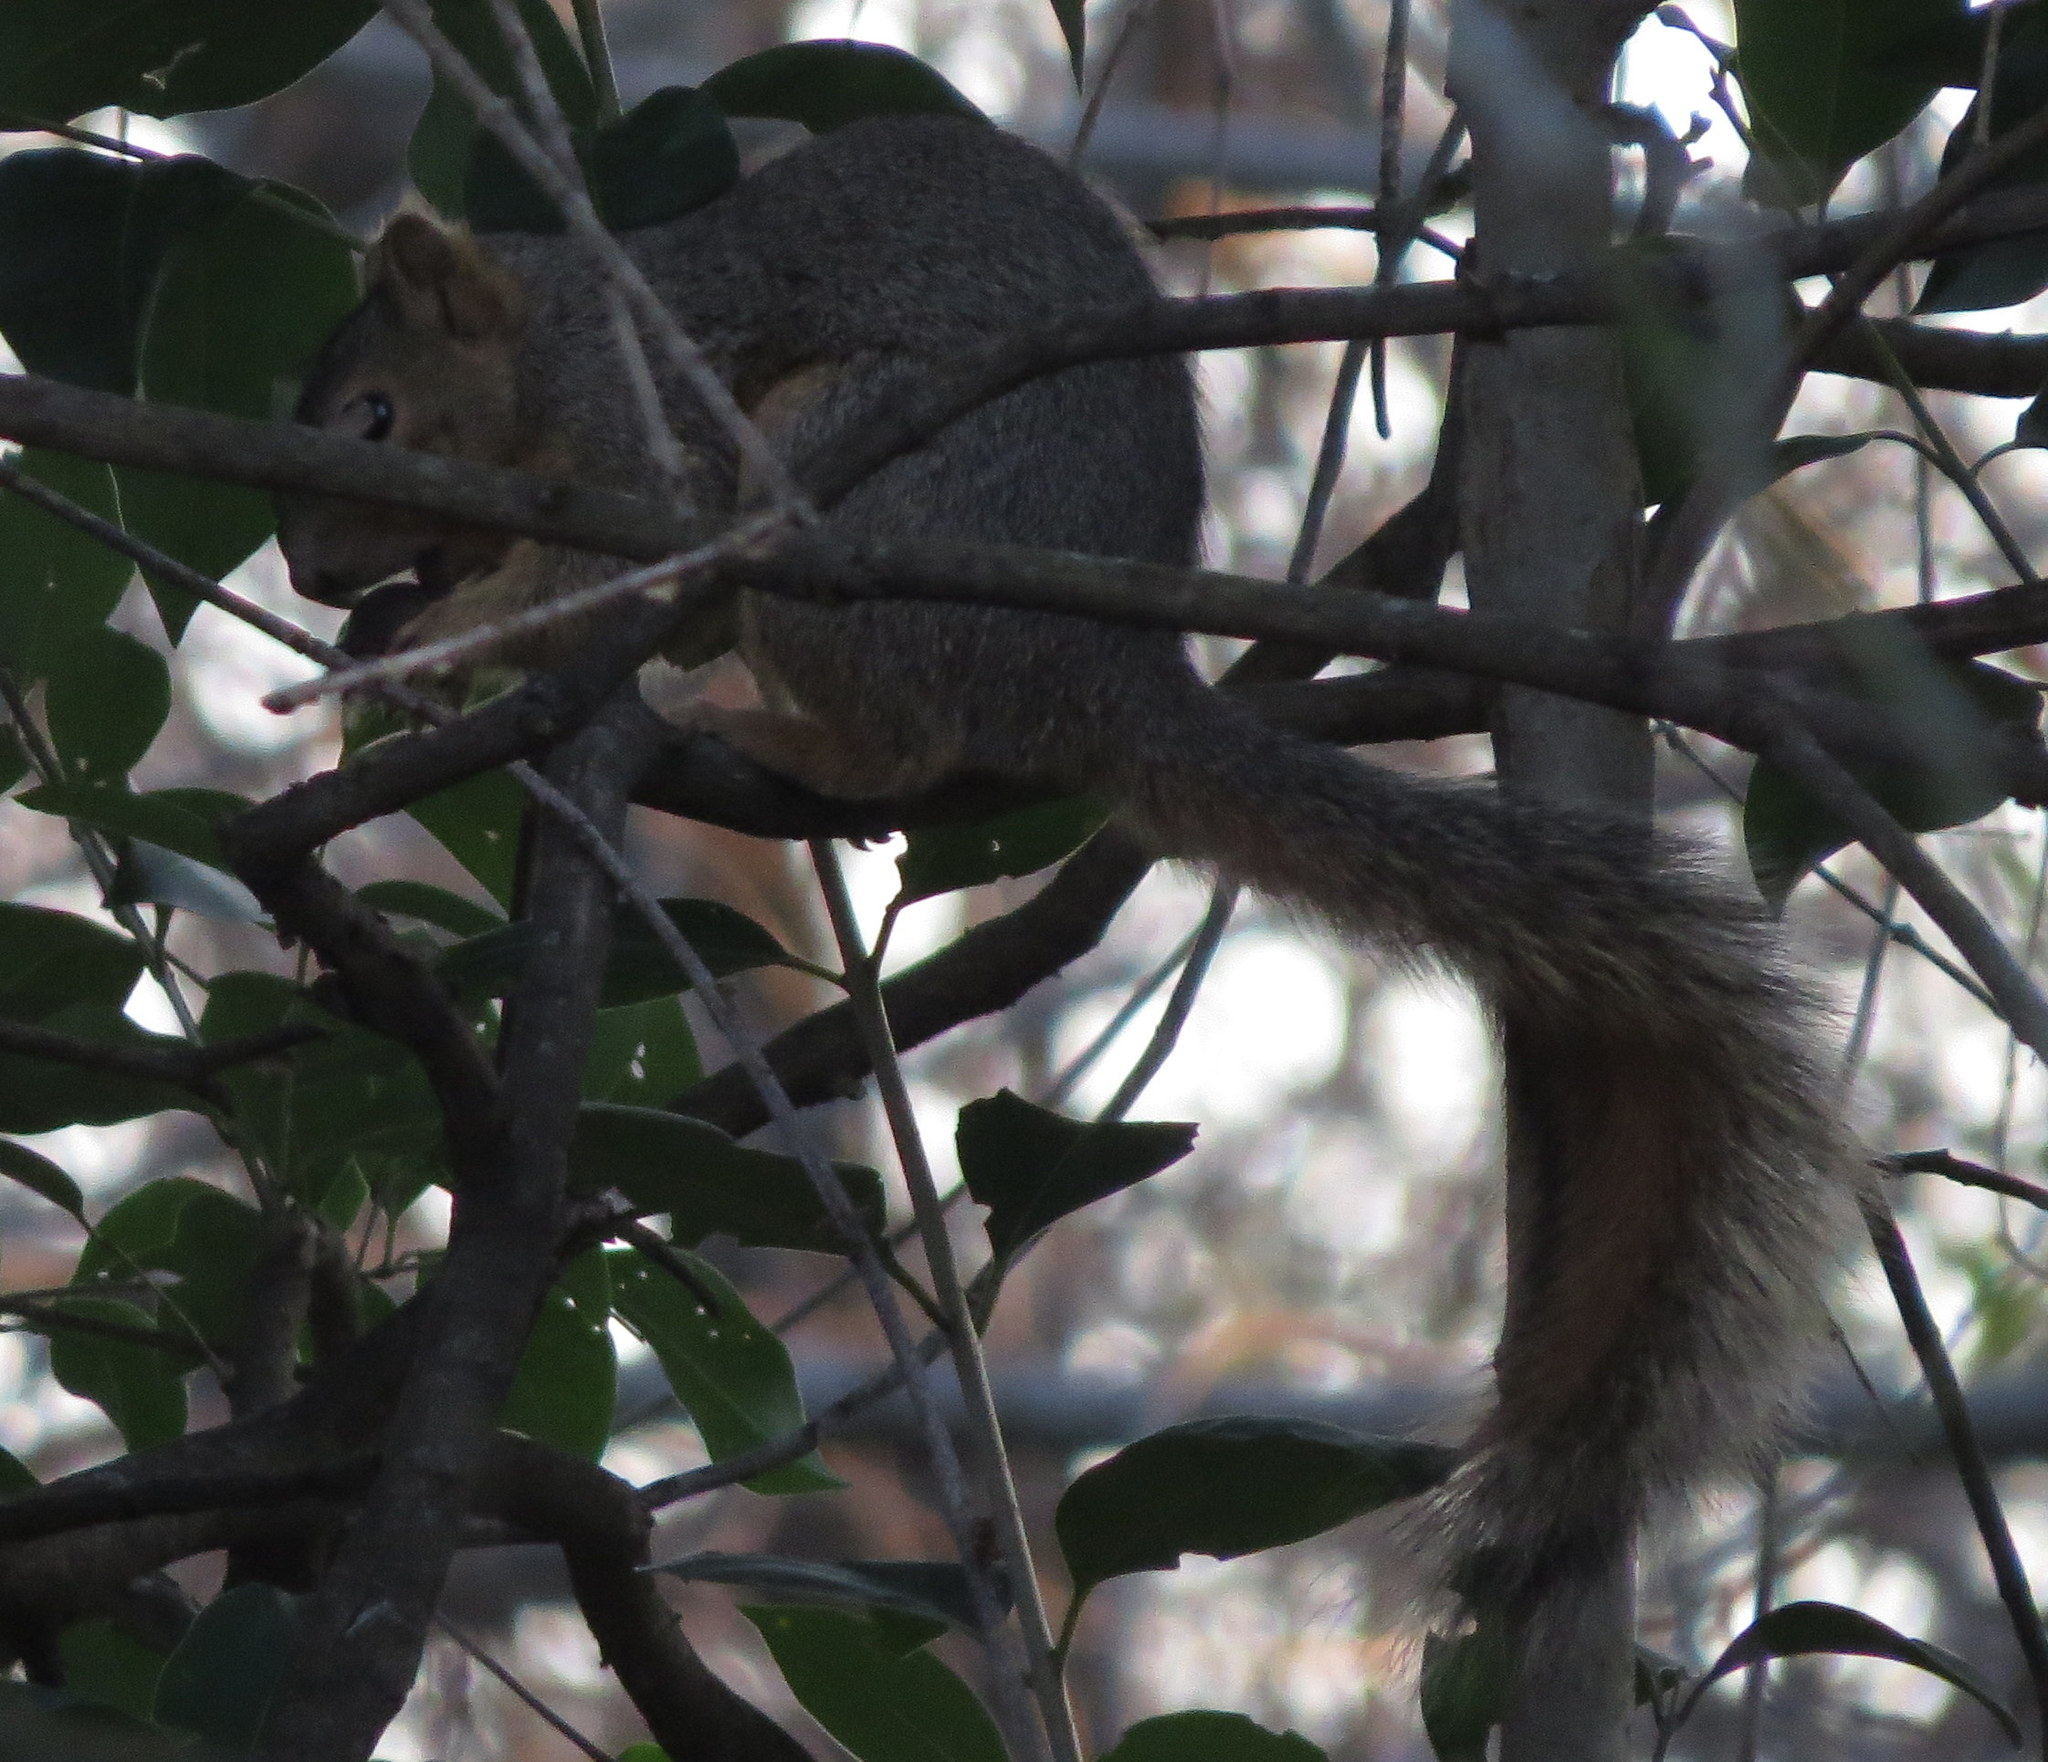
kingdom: Animalia
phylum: Chordata
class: Mammalia
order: Rodentia
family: Sciuridae
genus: Sciurus
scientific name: Sciurus niger
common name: Fox squirrel
